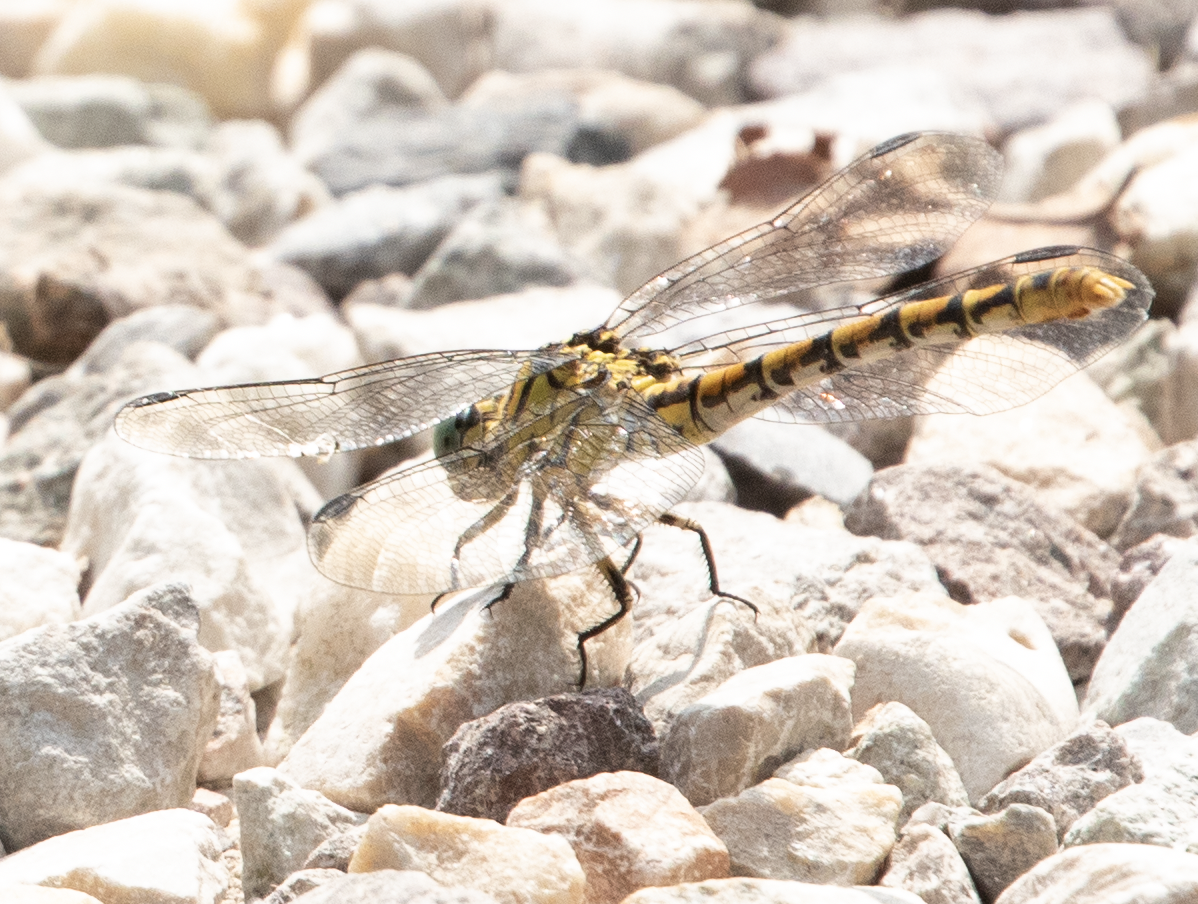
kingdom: Animalia
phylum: Arthropoda
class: Insecta
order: Odonata
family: Gomphidae
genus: Onychogomphus
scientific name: Onychogomphus forcipatus
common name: Small pincertail
